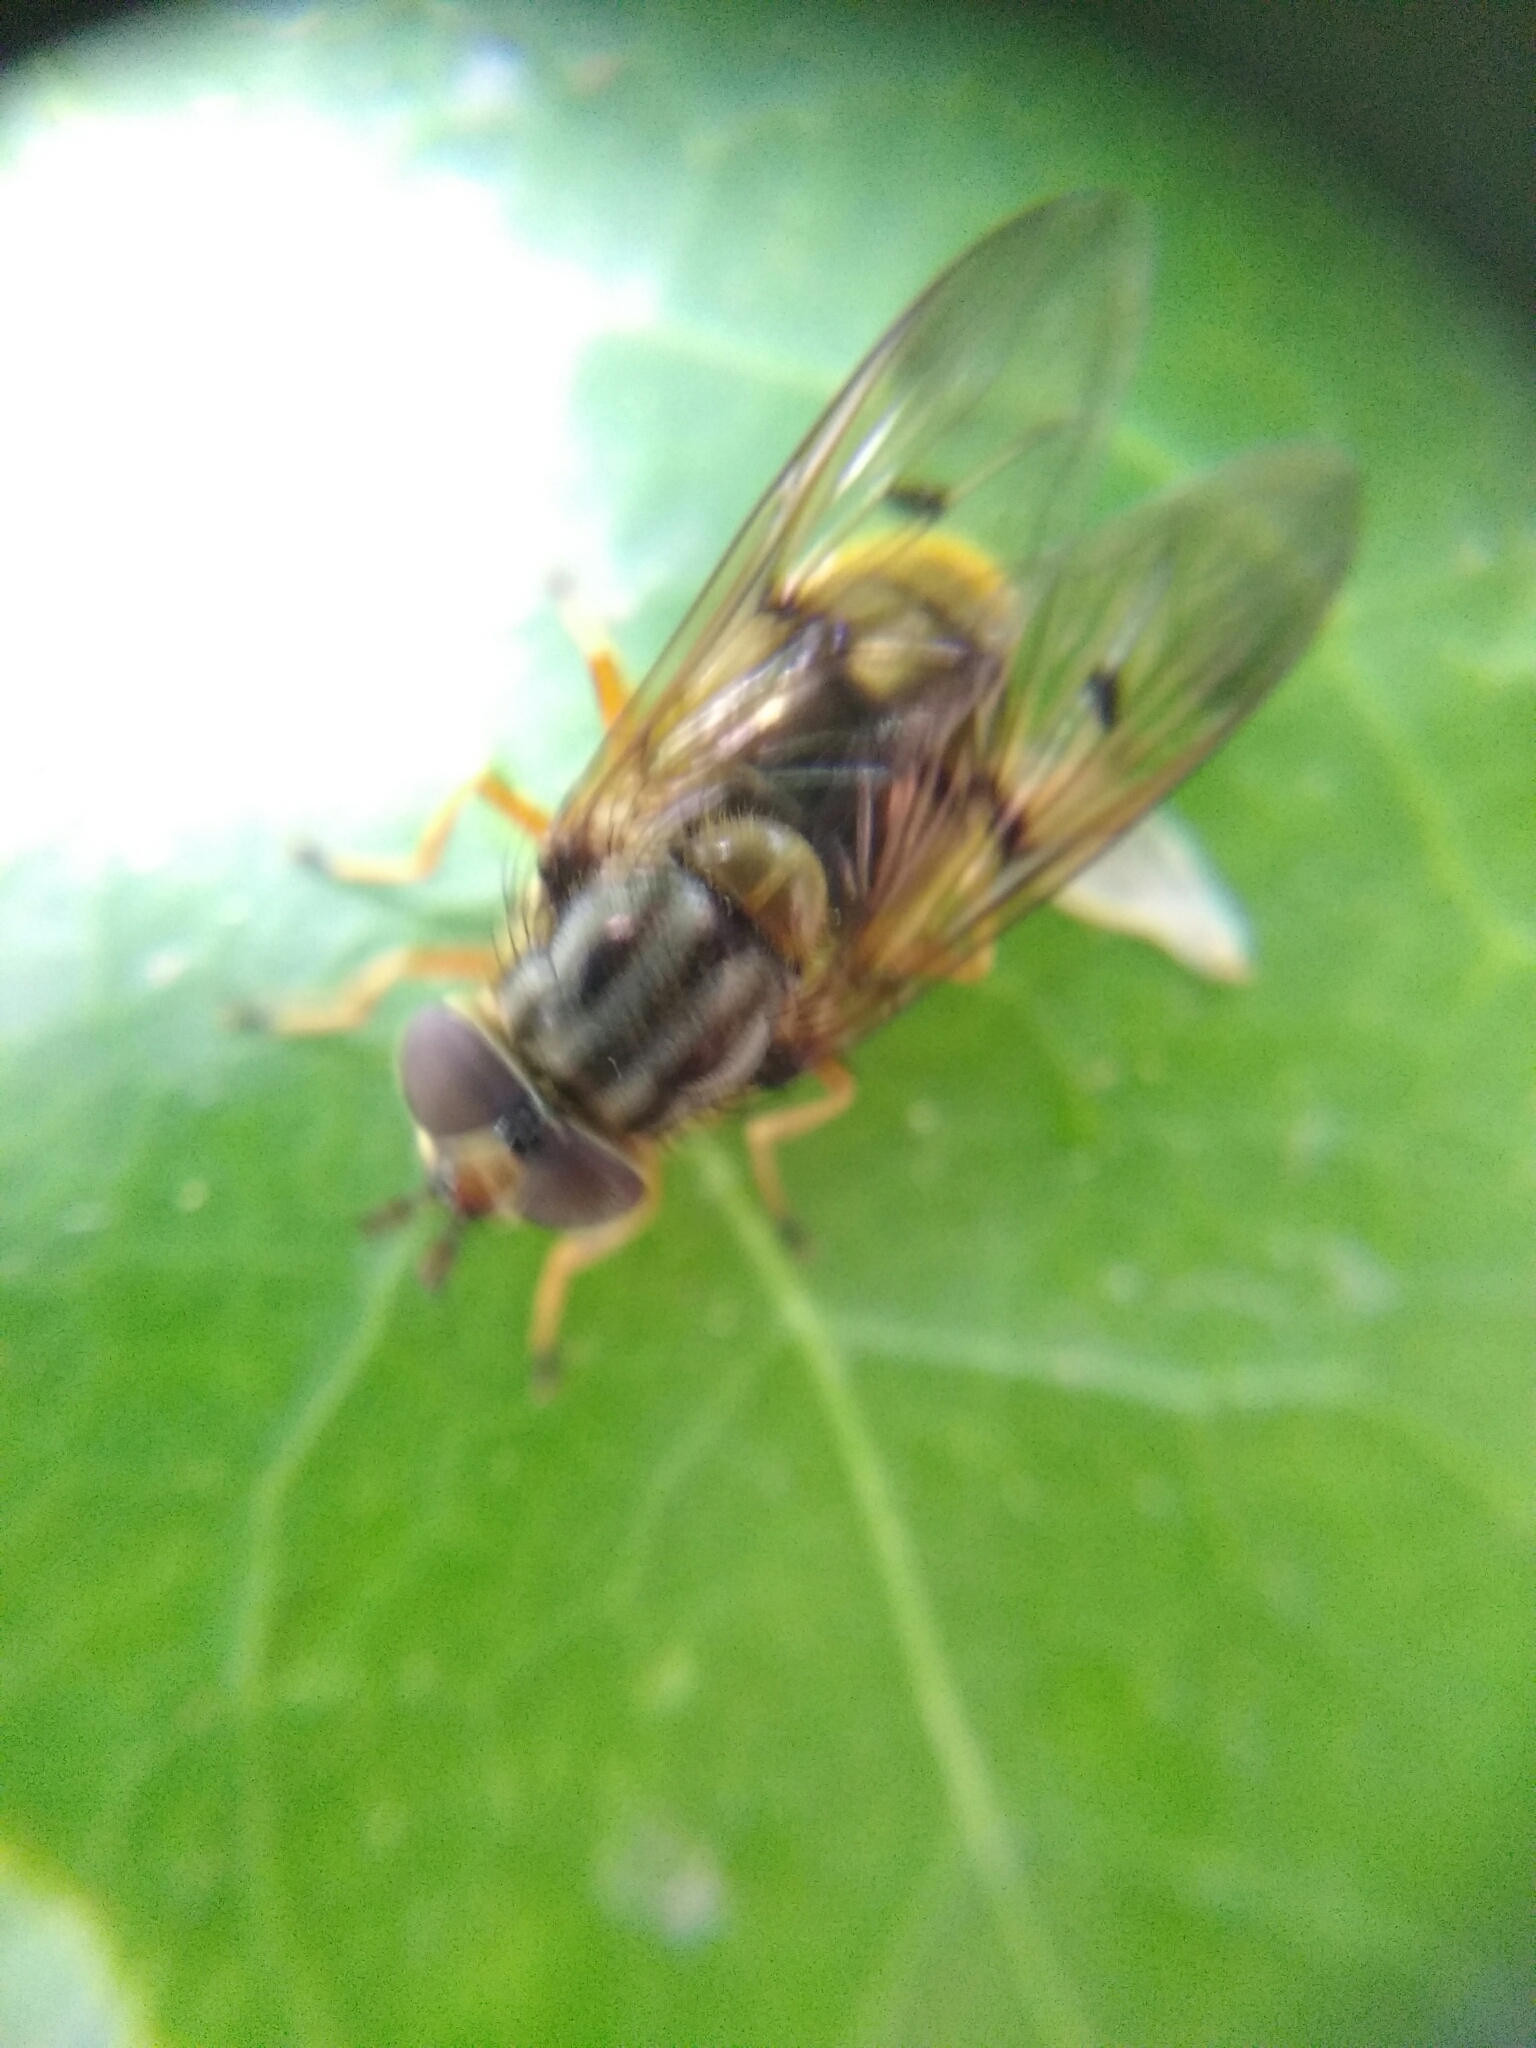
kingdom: Animalia
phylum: Arthropoda
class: Insecta
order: Diptera
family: Syrphidae
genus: Ferdinandea
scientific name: Ferdinandea cuprea
